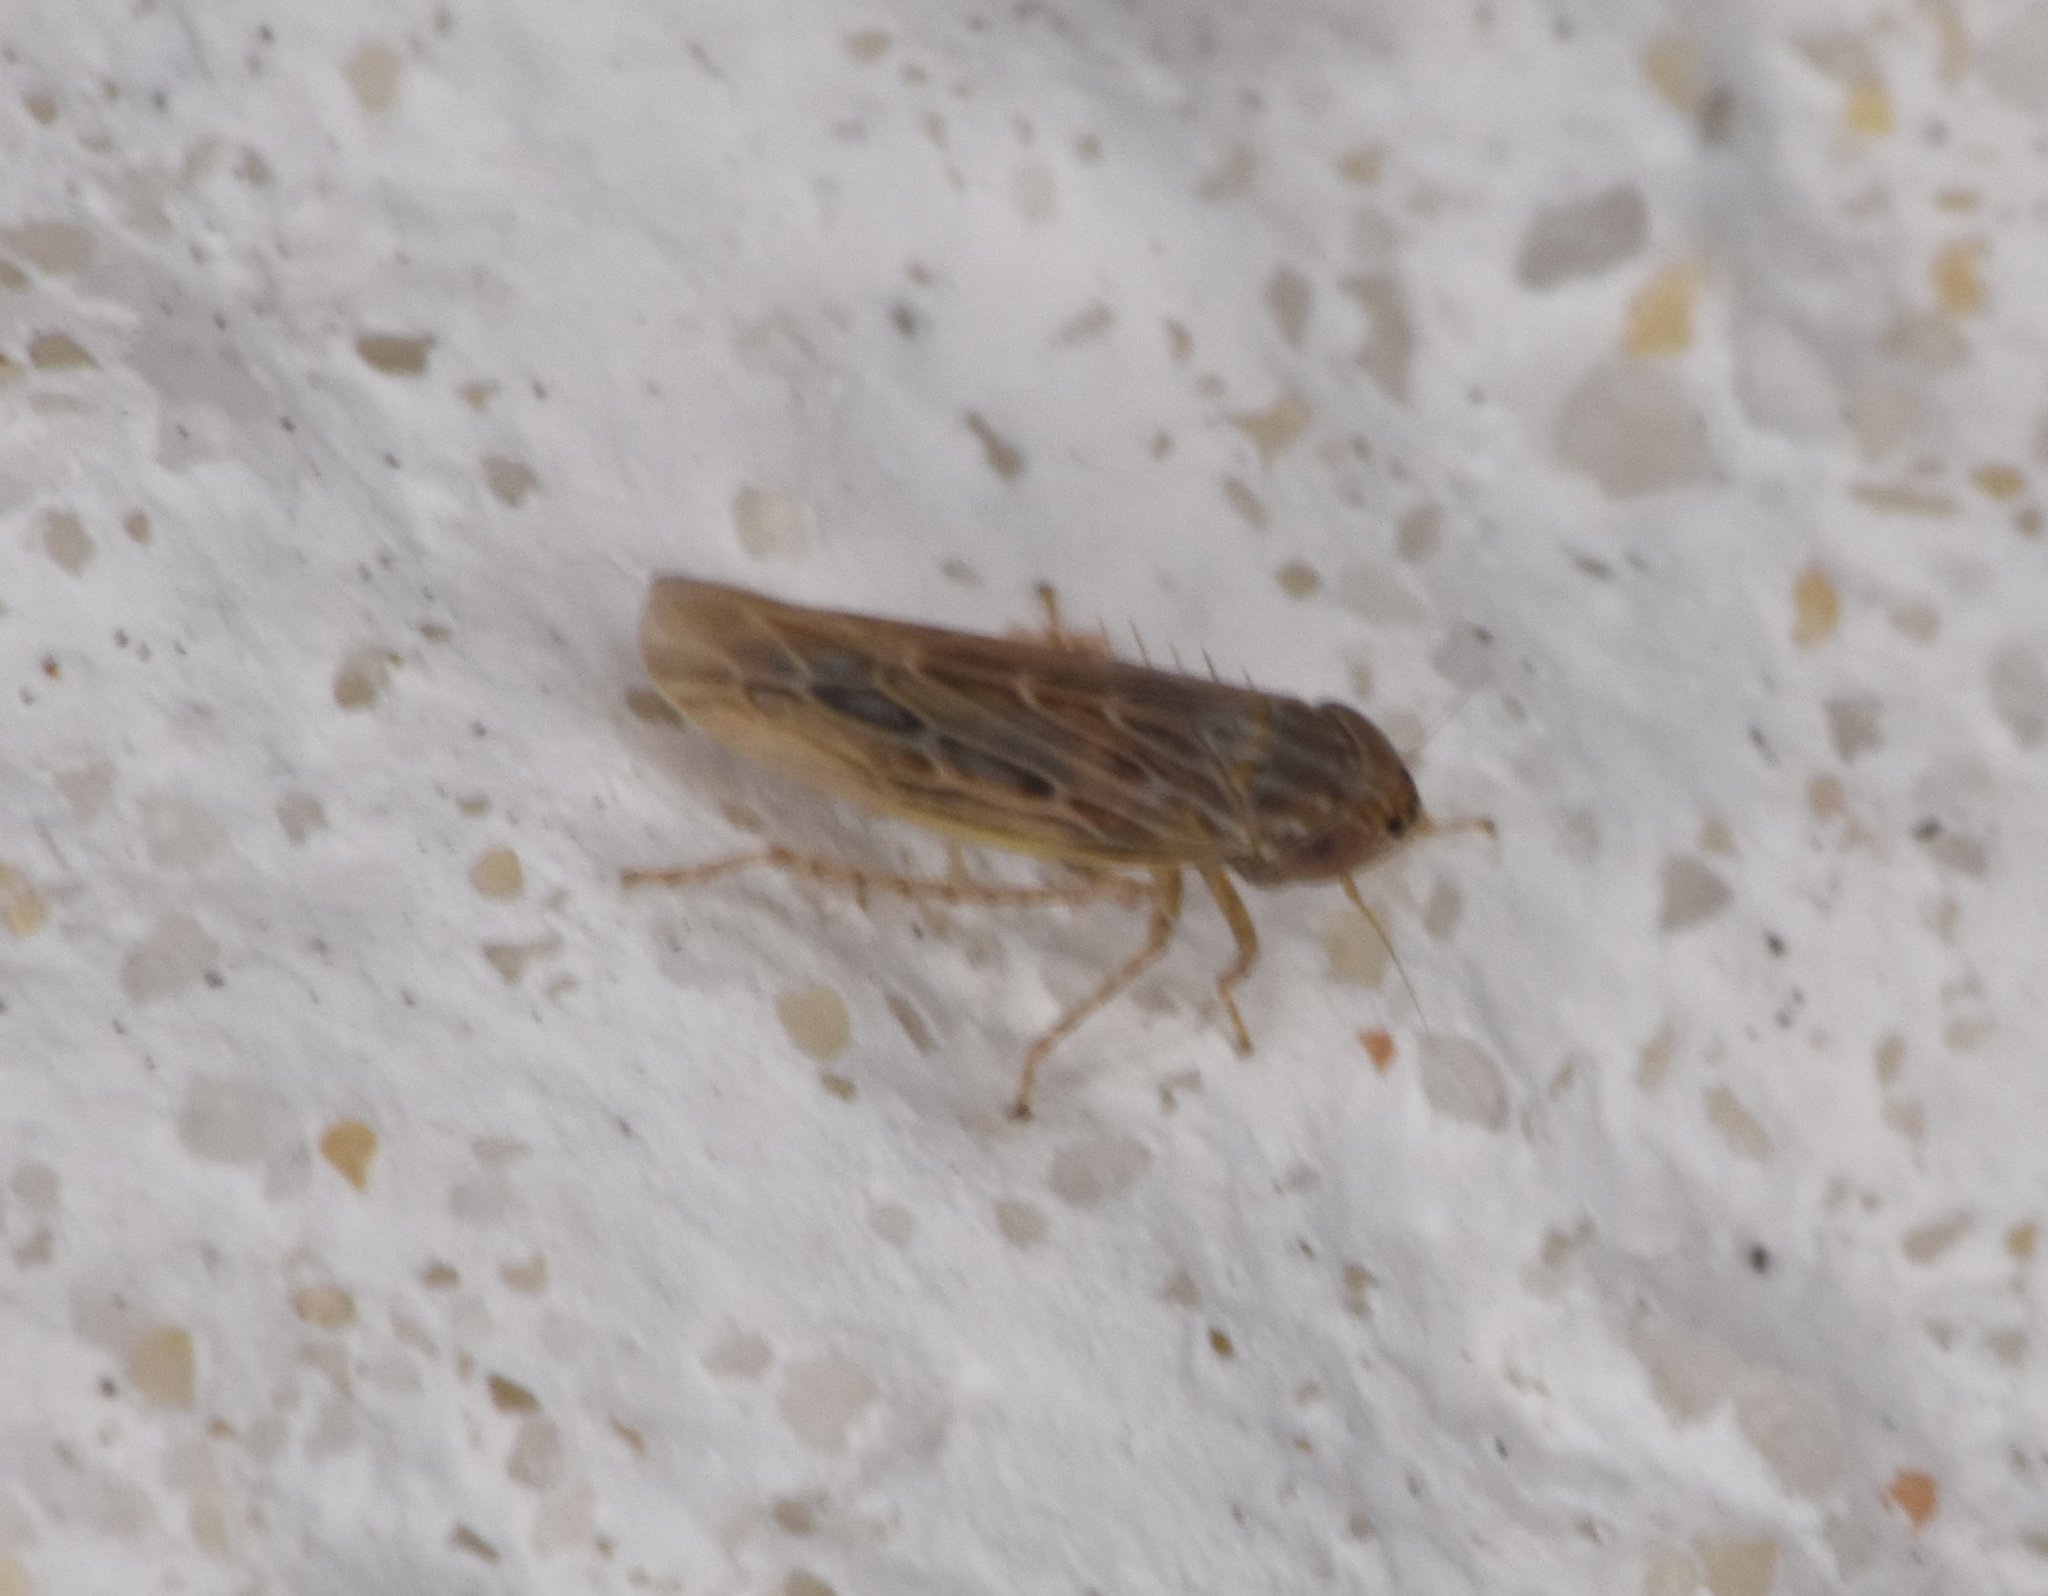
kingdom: Animalia
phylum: Arthropoda
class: Insecta
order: Hemiptera
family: Cicadellidae
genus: Graminella
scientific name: Graminella sonora
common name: Lesser lawn leafhopper
